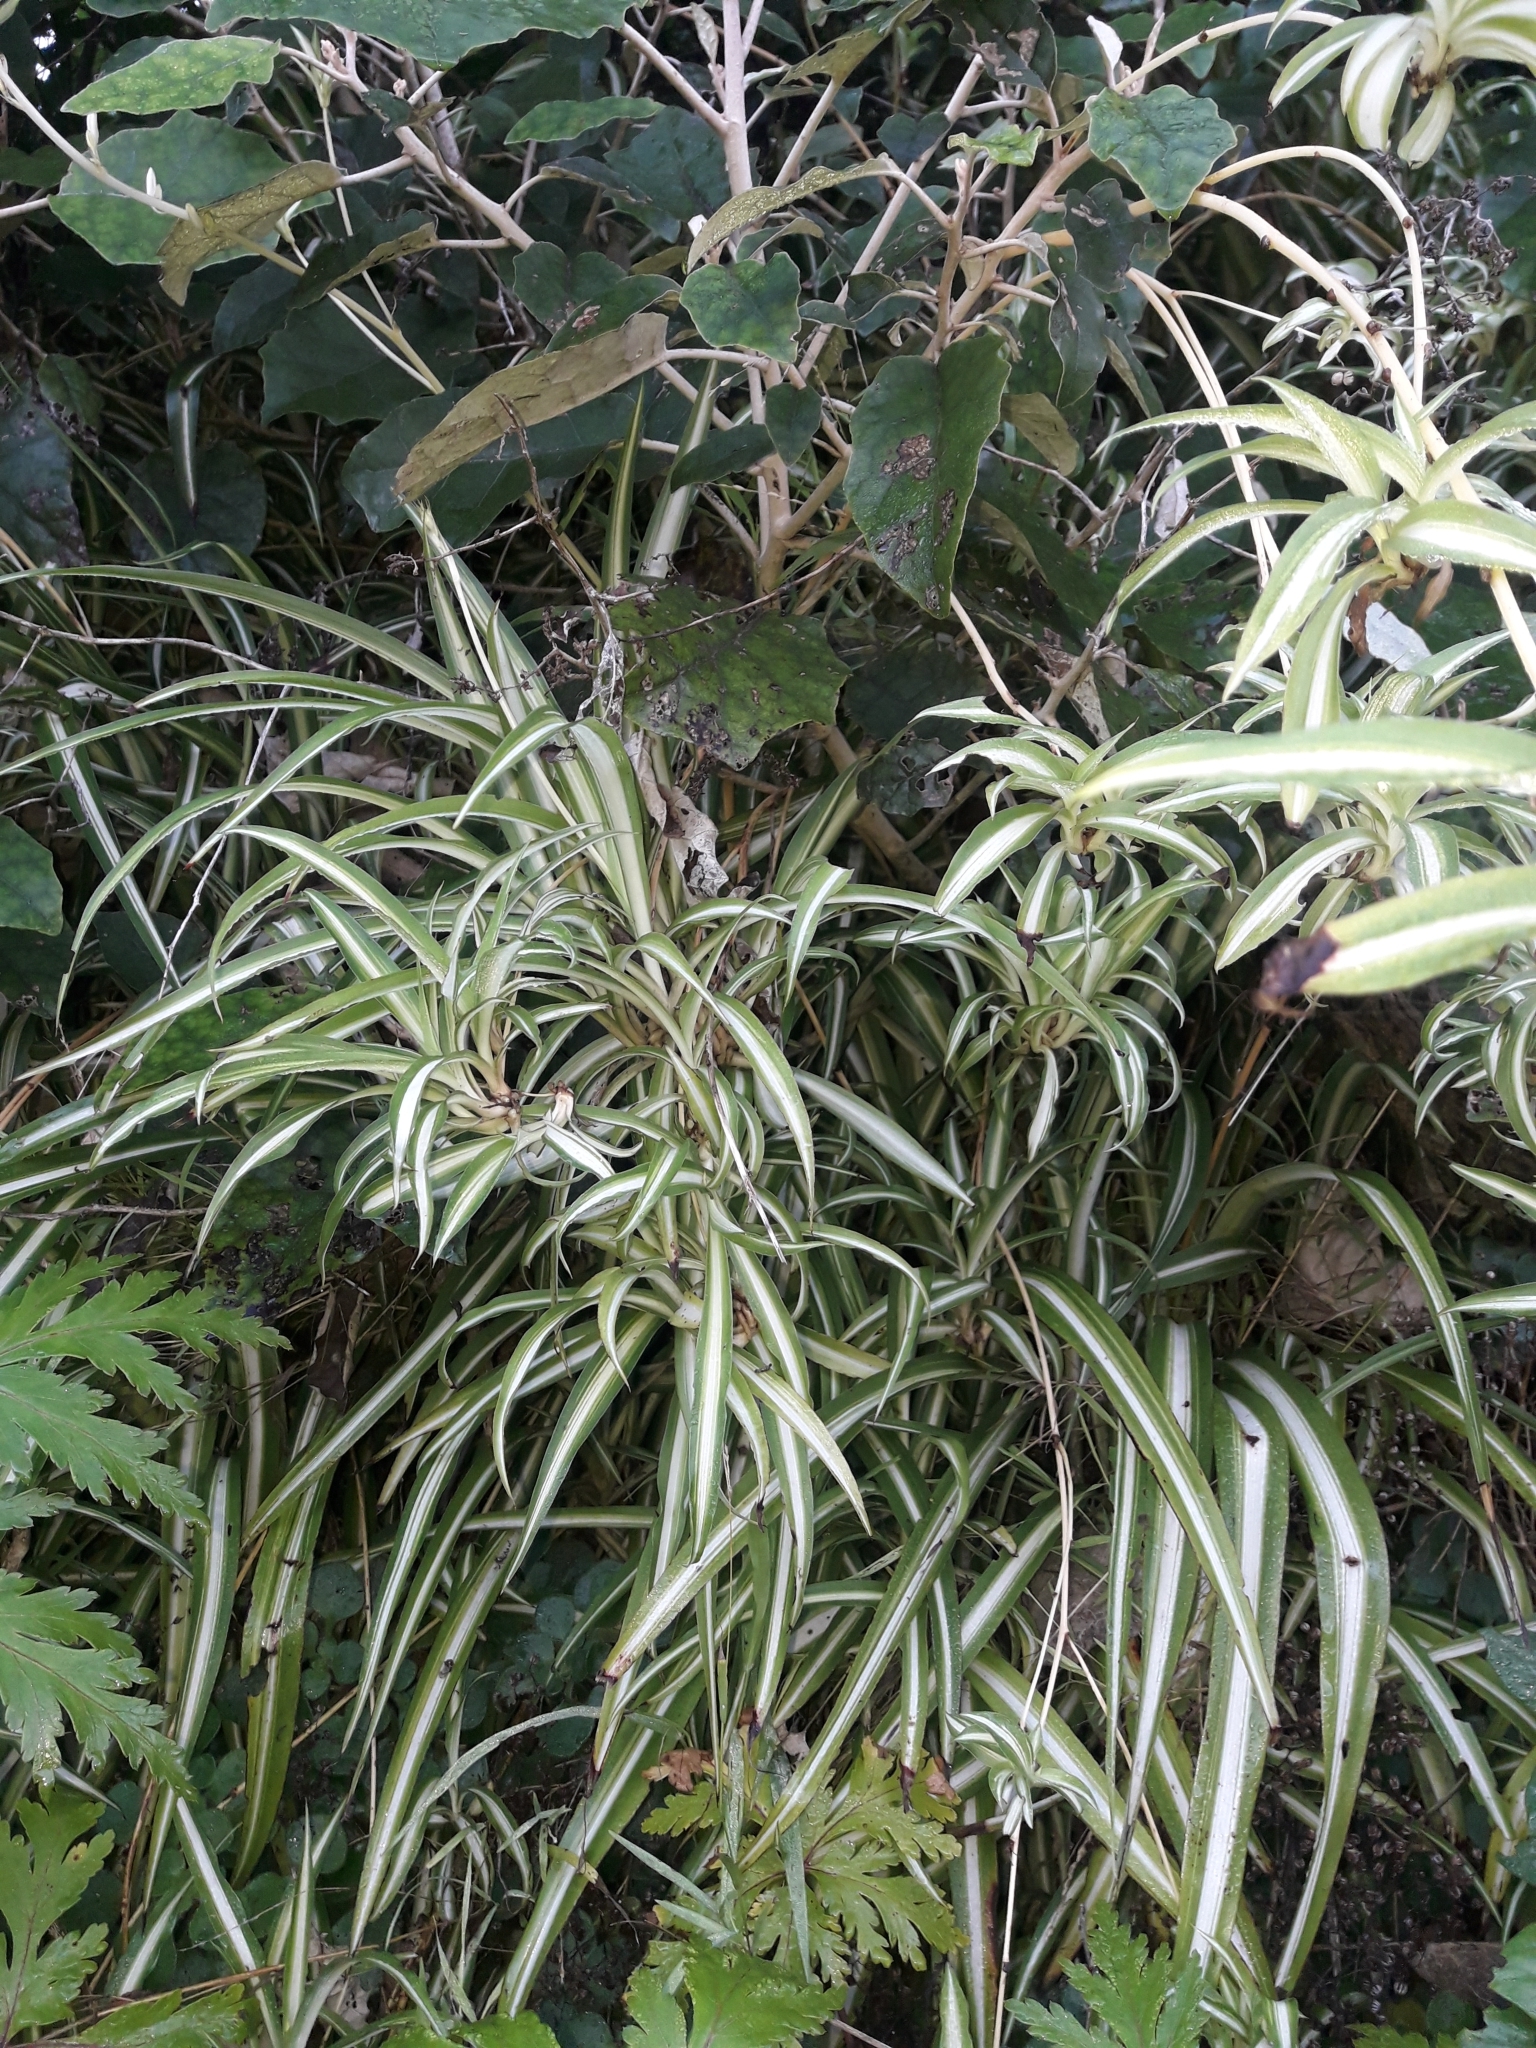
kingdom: Plantae
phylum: Tracheophyta
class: Liliopsida
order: Asparagales
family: Asparagaceae
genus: Chlorophytum
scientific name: Chlorophytum comosum
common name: Spider plant
